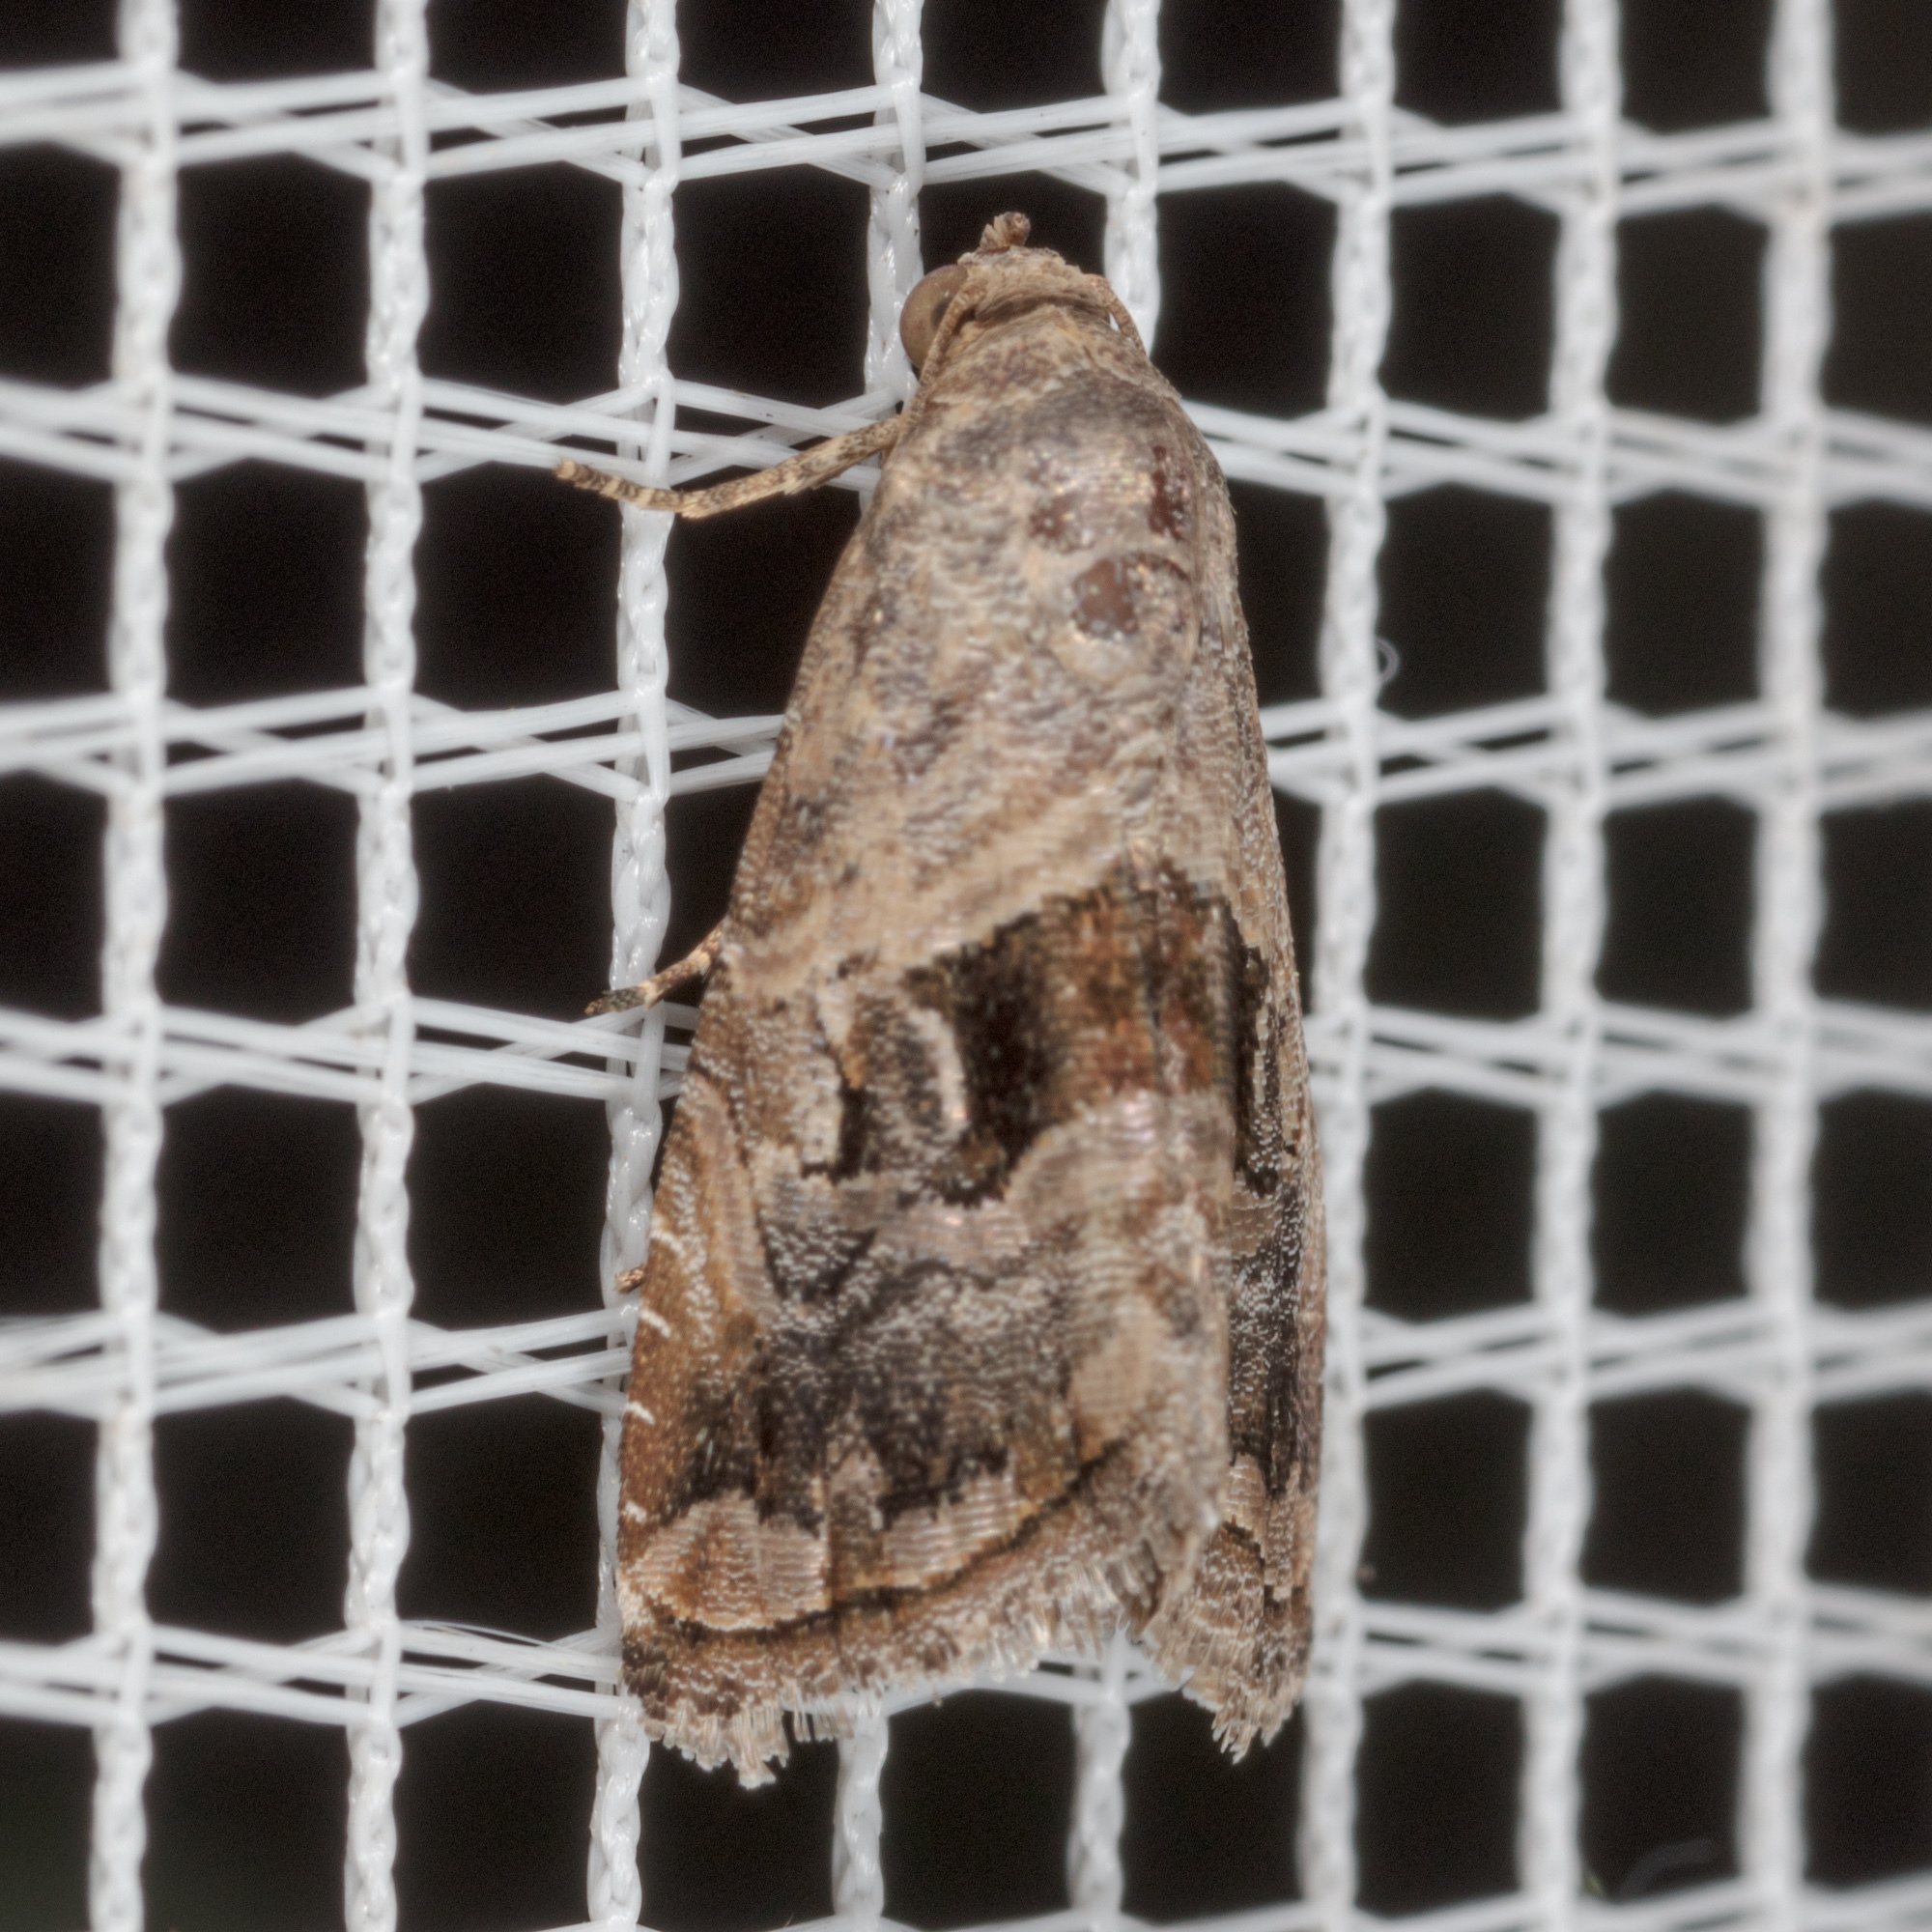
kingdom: Animalia
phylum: Arthropoda
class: Insecta
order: Lepidoptera
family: Noctuidae
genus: Tripudia
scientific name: Tripudia quadrifera
